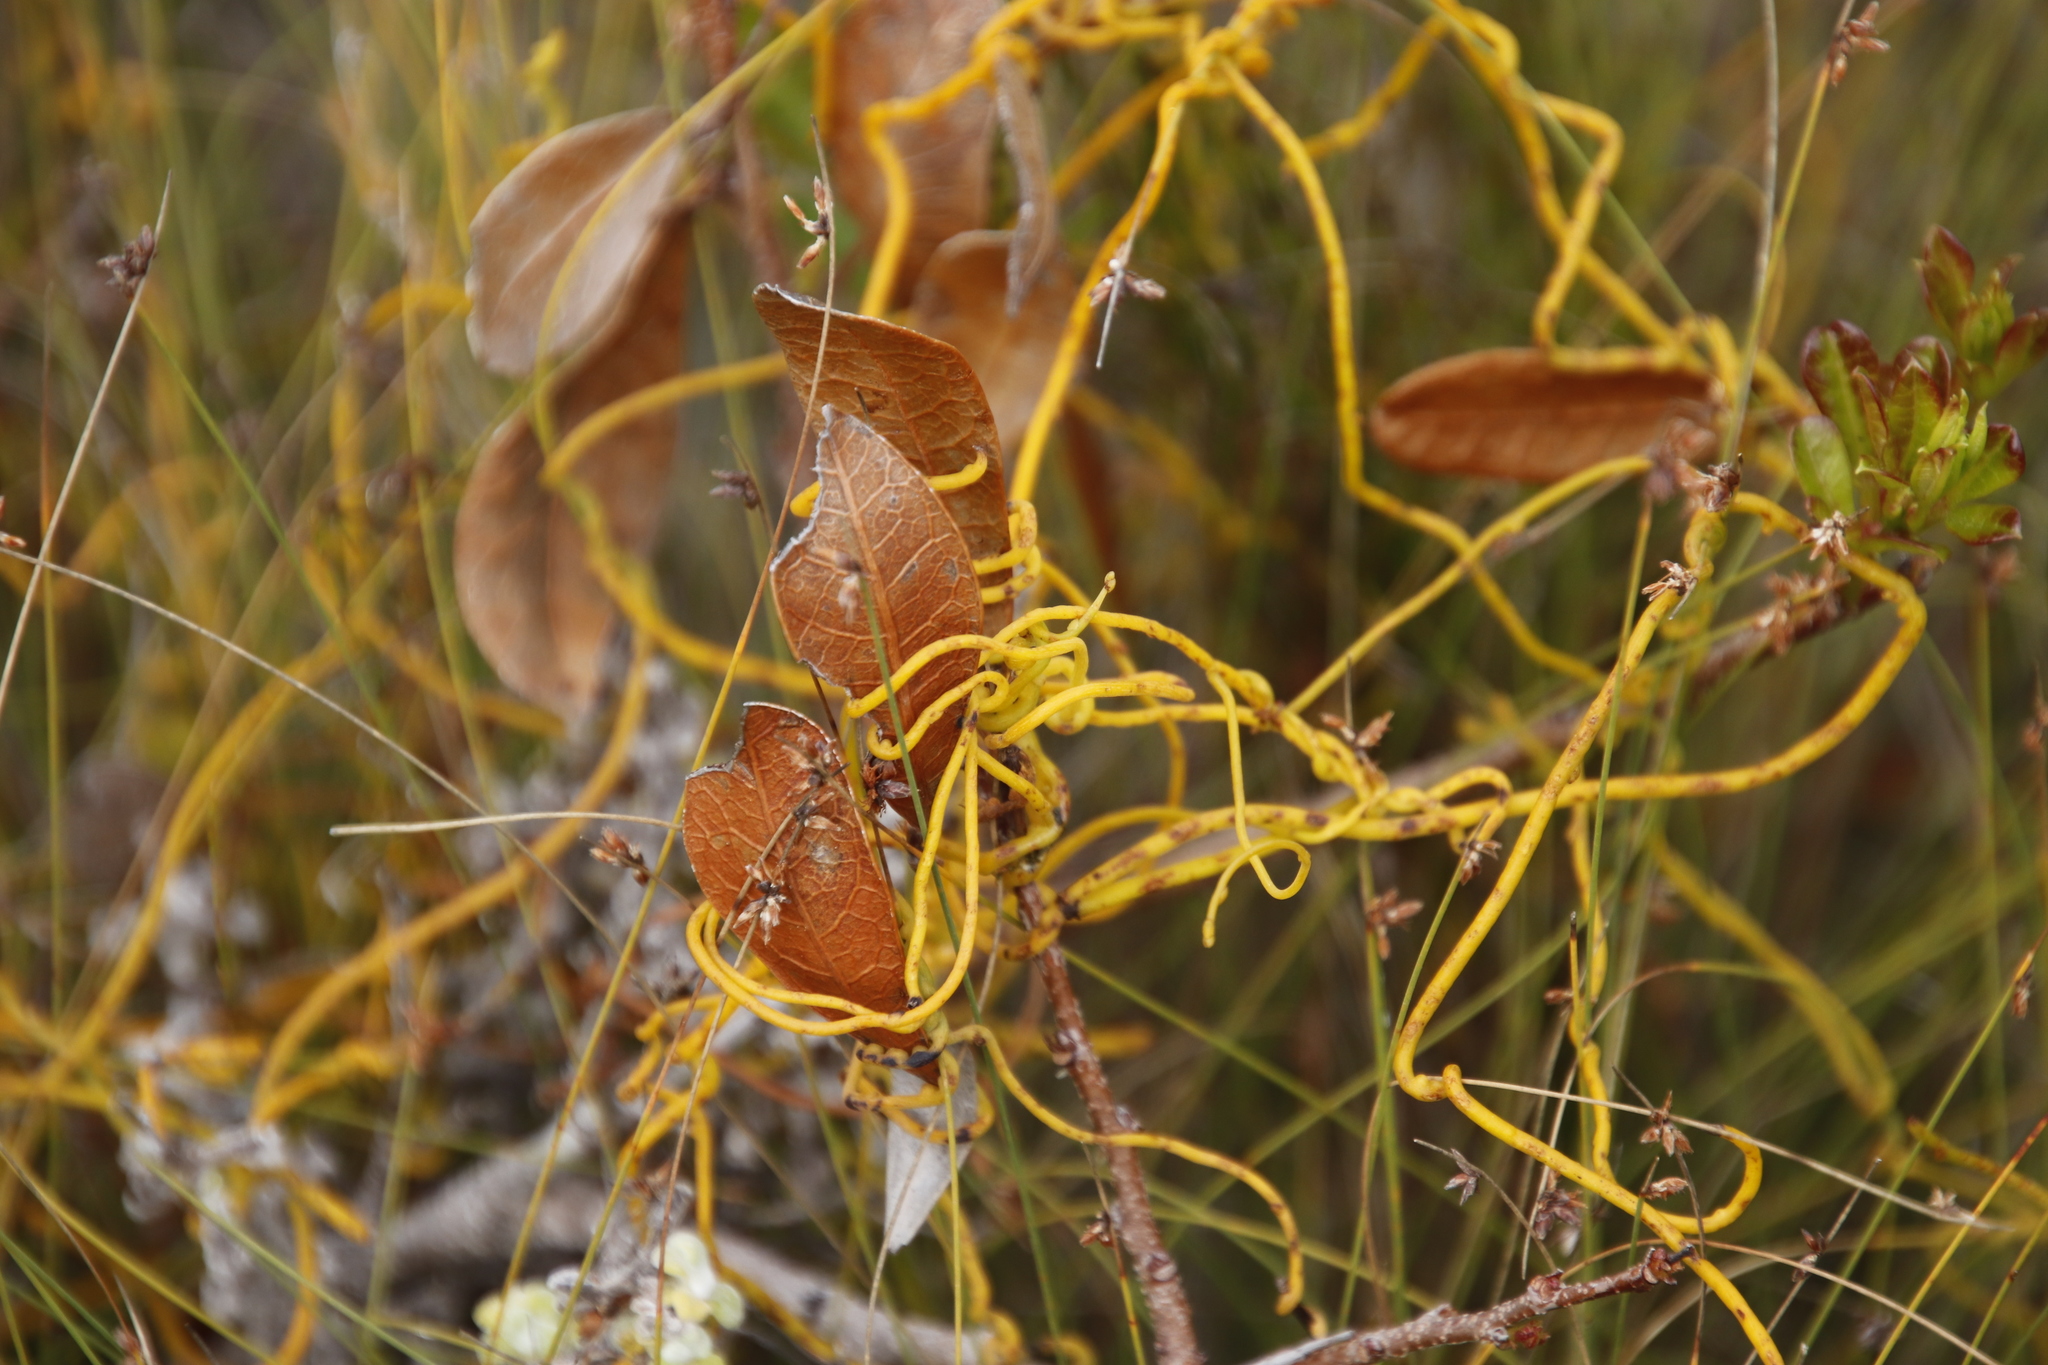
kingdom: Plantae
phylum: Tracheophyta
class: Magnoliopsida
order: Laurales
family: Lauraceae
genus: Cassytha
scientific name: Cassytha ciliolata
